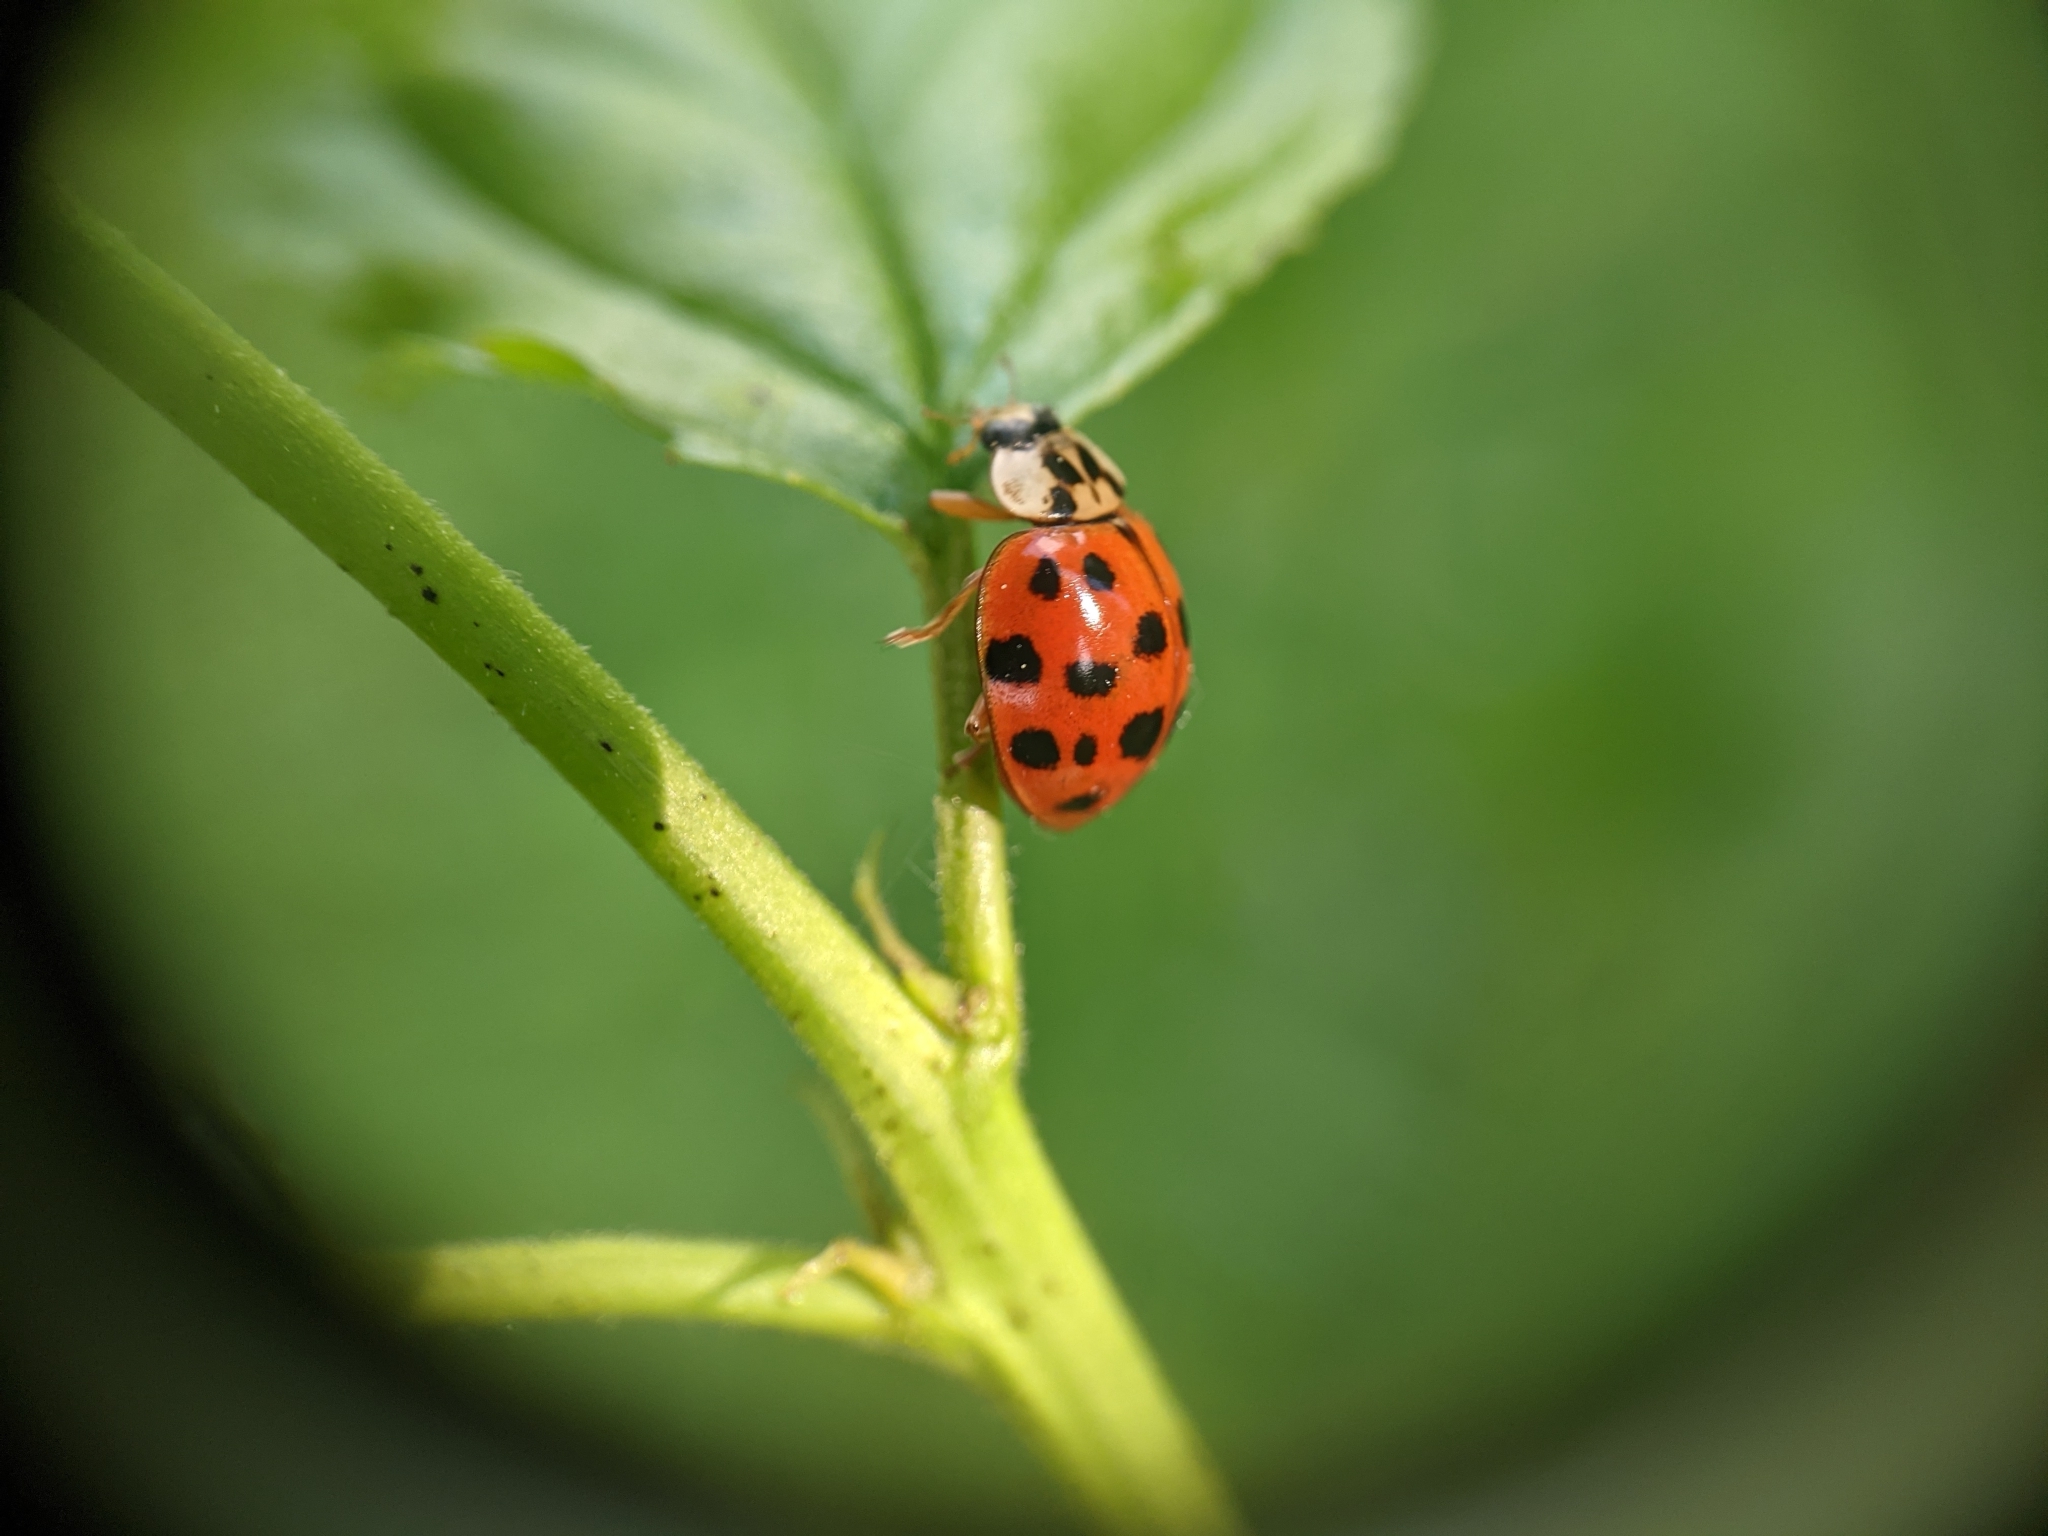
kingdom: Animalia
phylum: Arthropoda
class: Insecta
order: Coleoptera
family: Coccinellidae
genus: Harmonia
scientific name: Harmonia axyridis
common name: Harlequin ladybird
